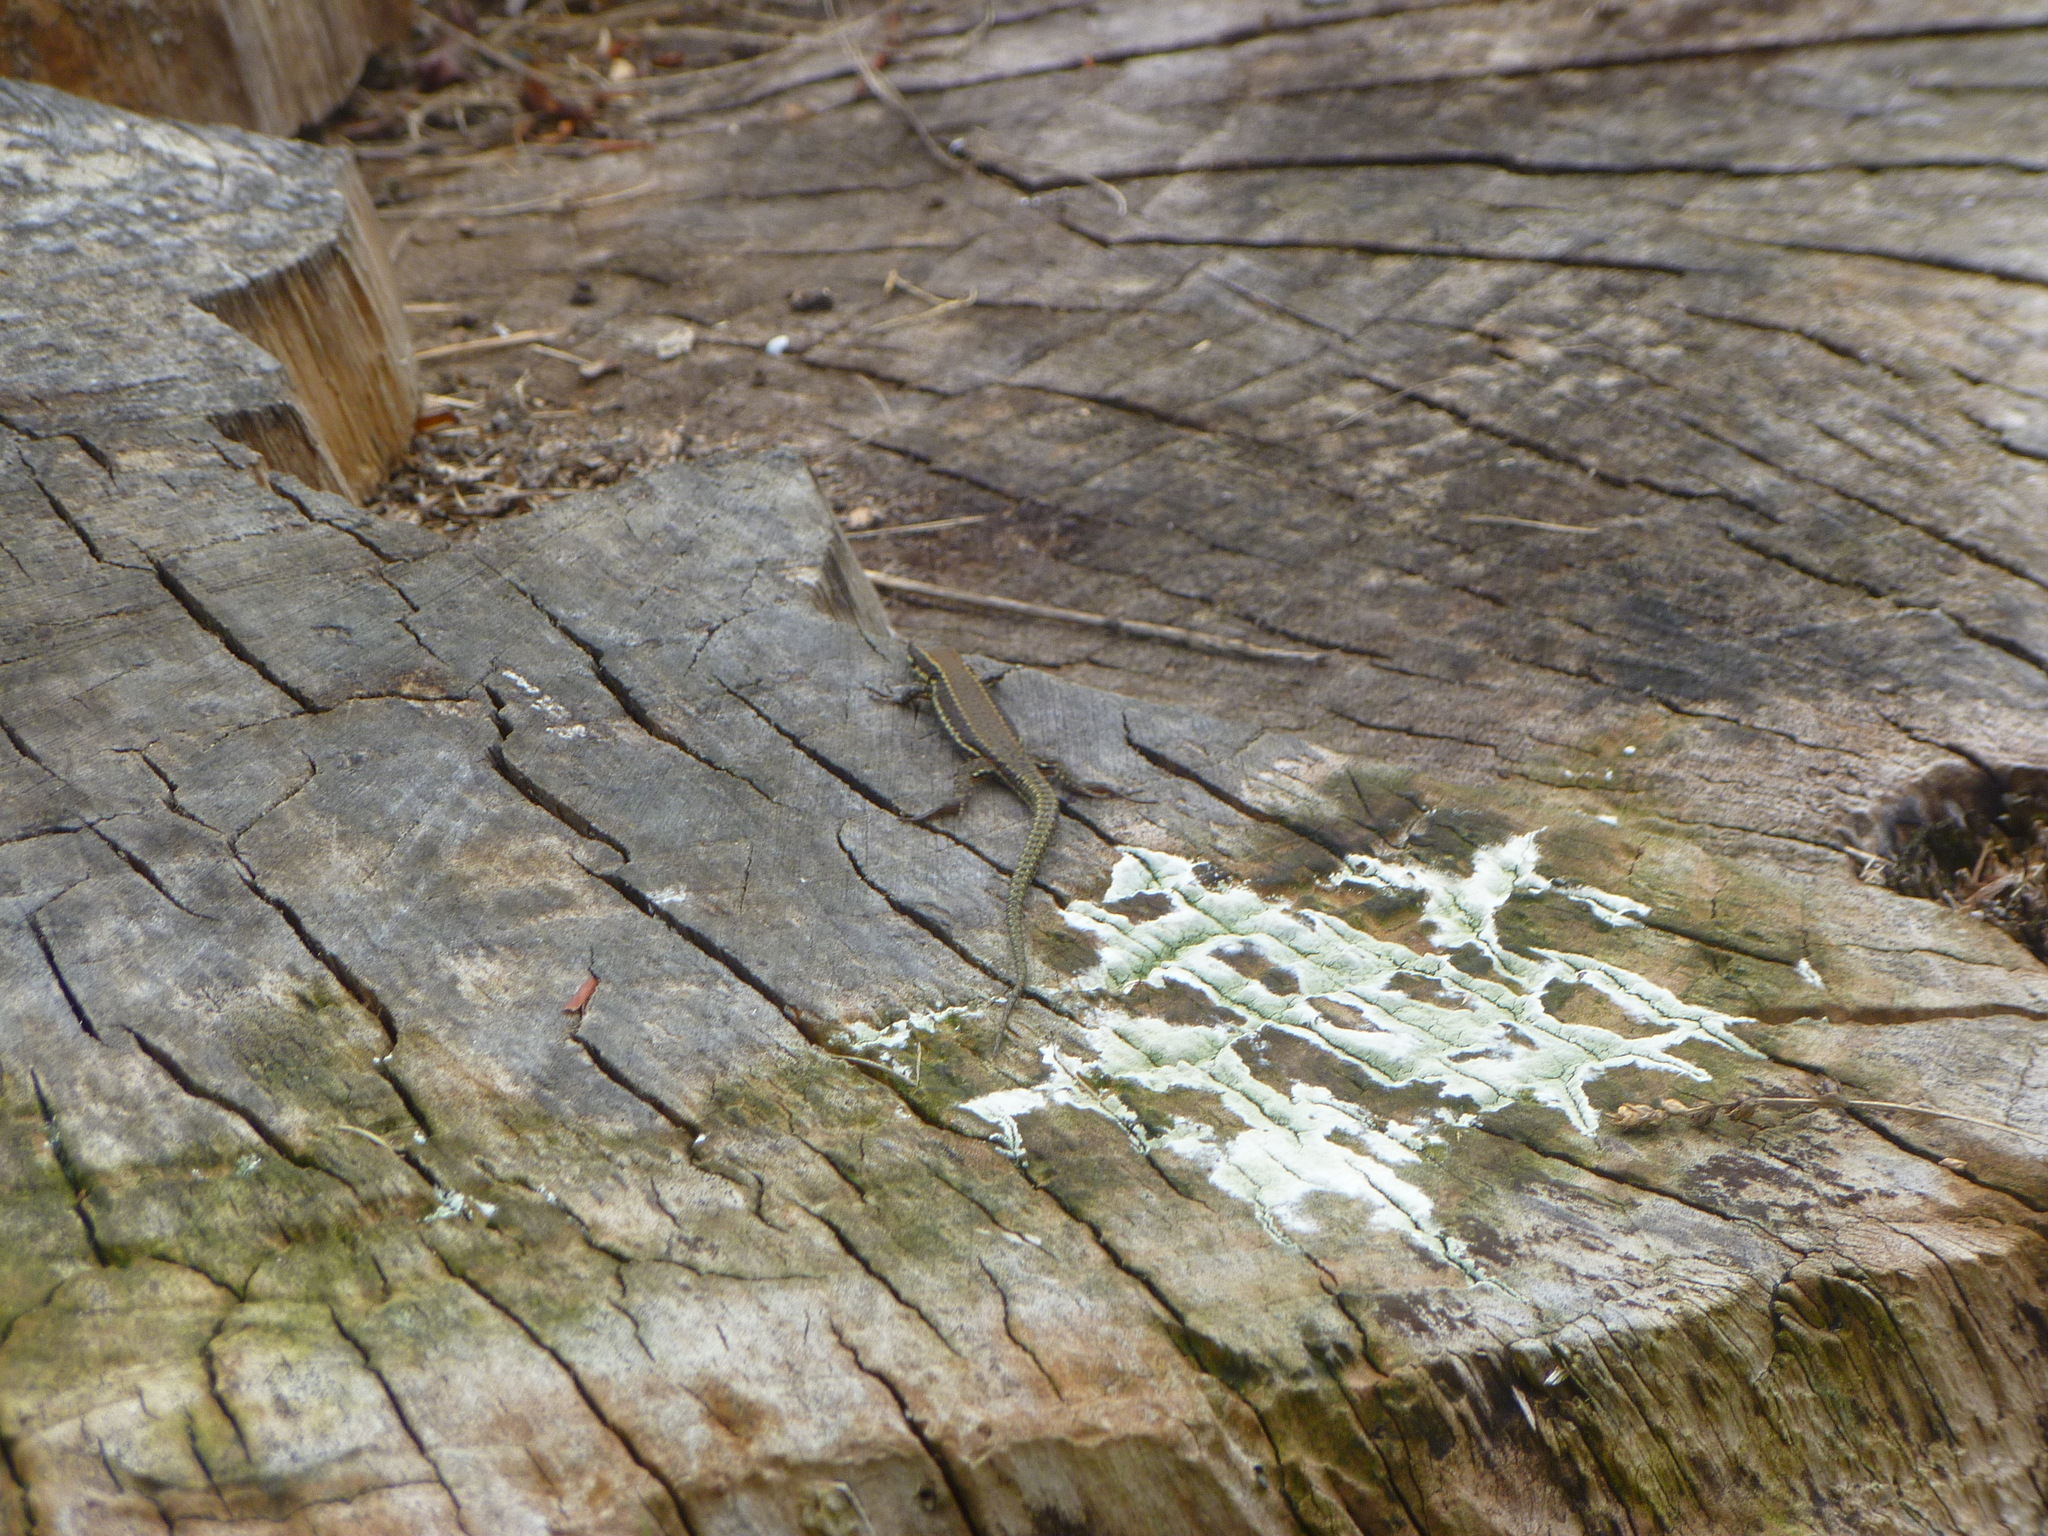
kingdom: Animalia
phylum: Chordata
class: Squamata
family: Lacertidae
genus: Podarcis
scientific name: Podarcis muralis
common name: Common wall lizard
